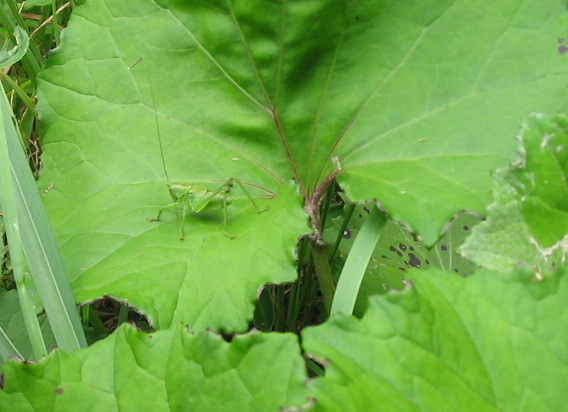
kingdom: Plantae
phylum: Tracheophyta
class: Magnoliopsida
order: Asterales
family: Asteraceae
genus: Petasites
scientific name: Petasites hybridus
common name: Butterbur
